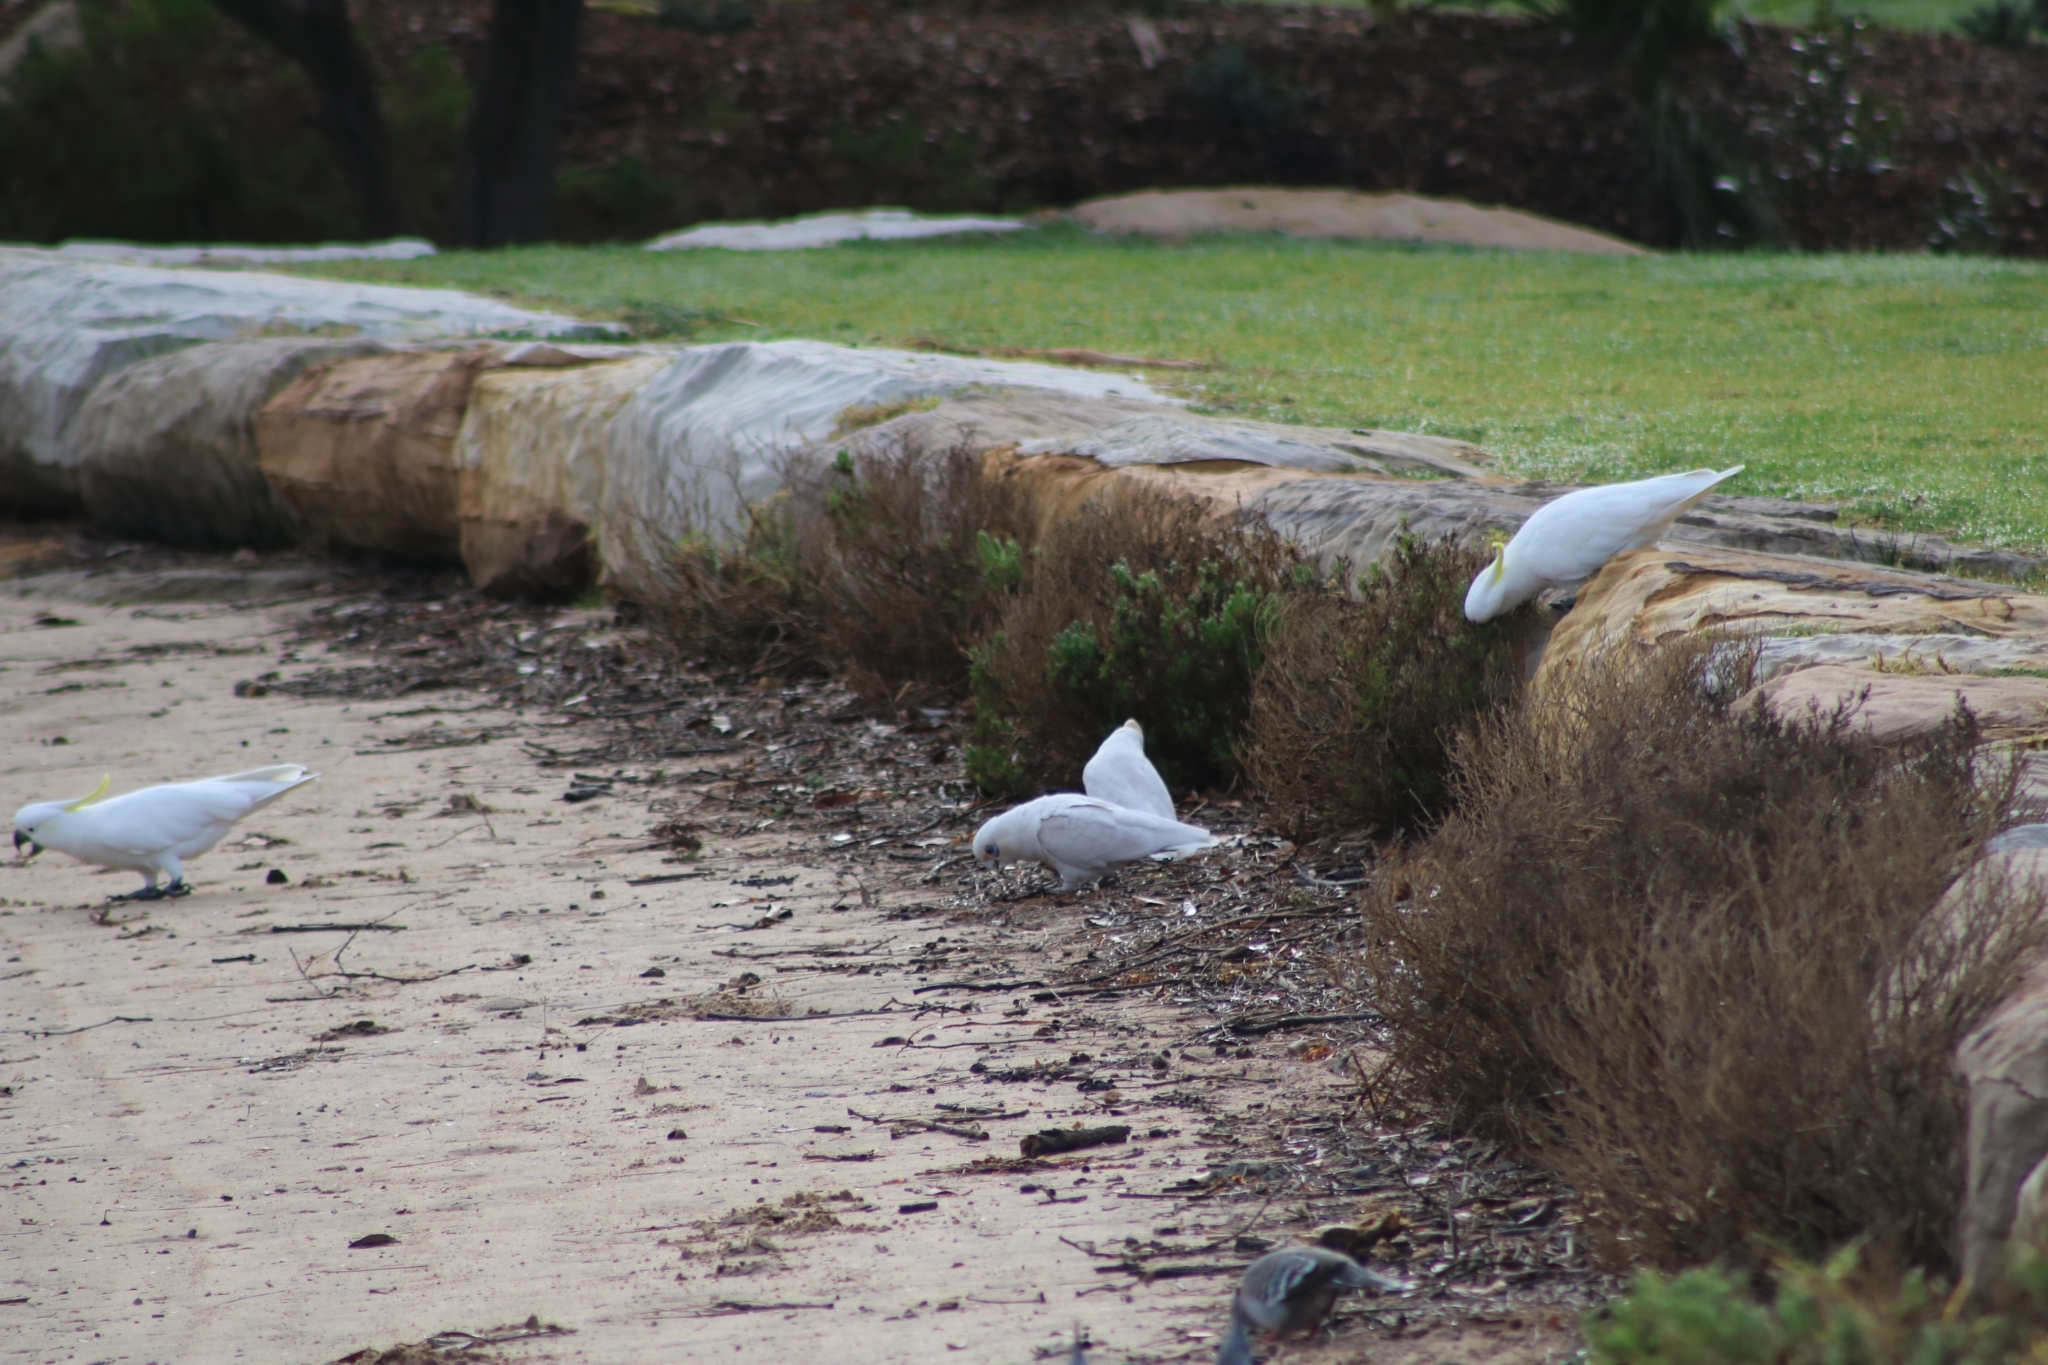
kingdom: Animalia
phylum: Chordata
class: Aves
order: Psittaciformes
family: Psittacidae
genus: Cacatua
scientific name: Cacatua sanguinea
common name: Little corella
